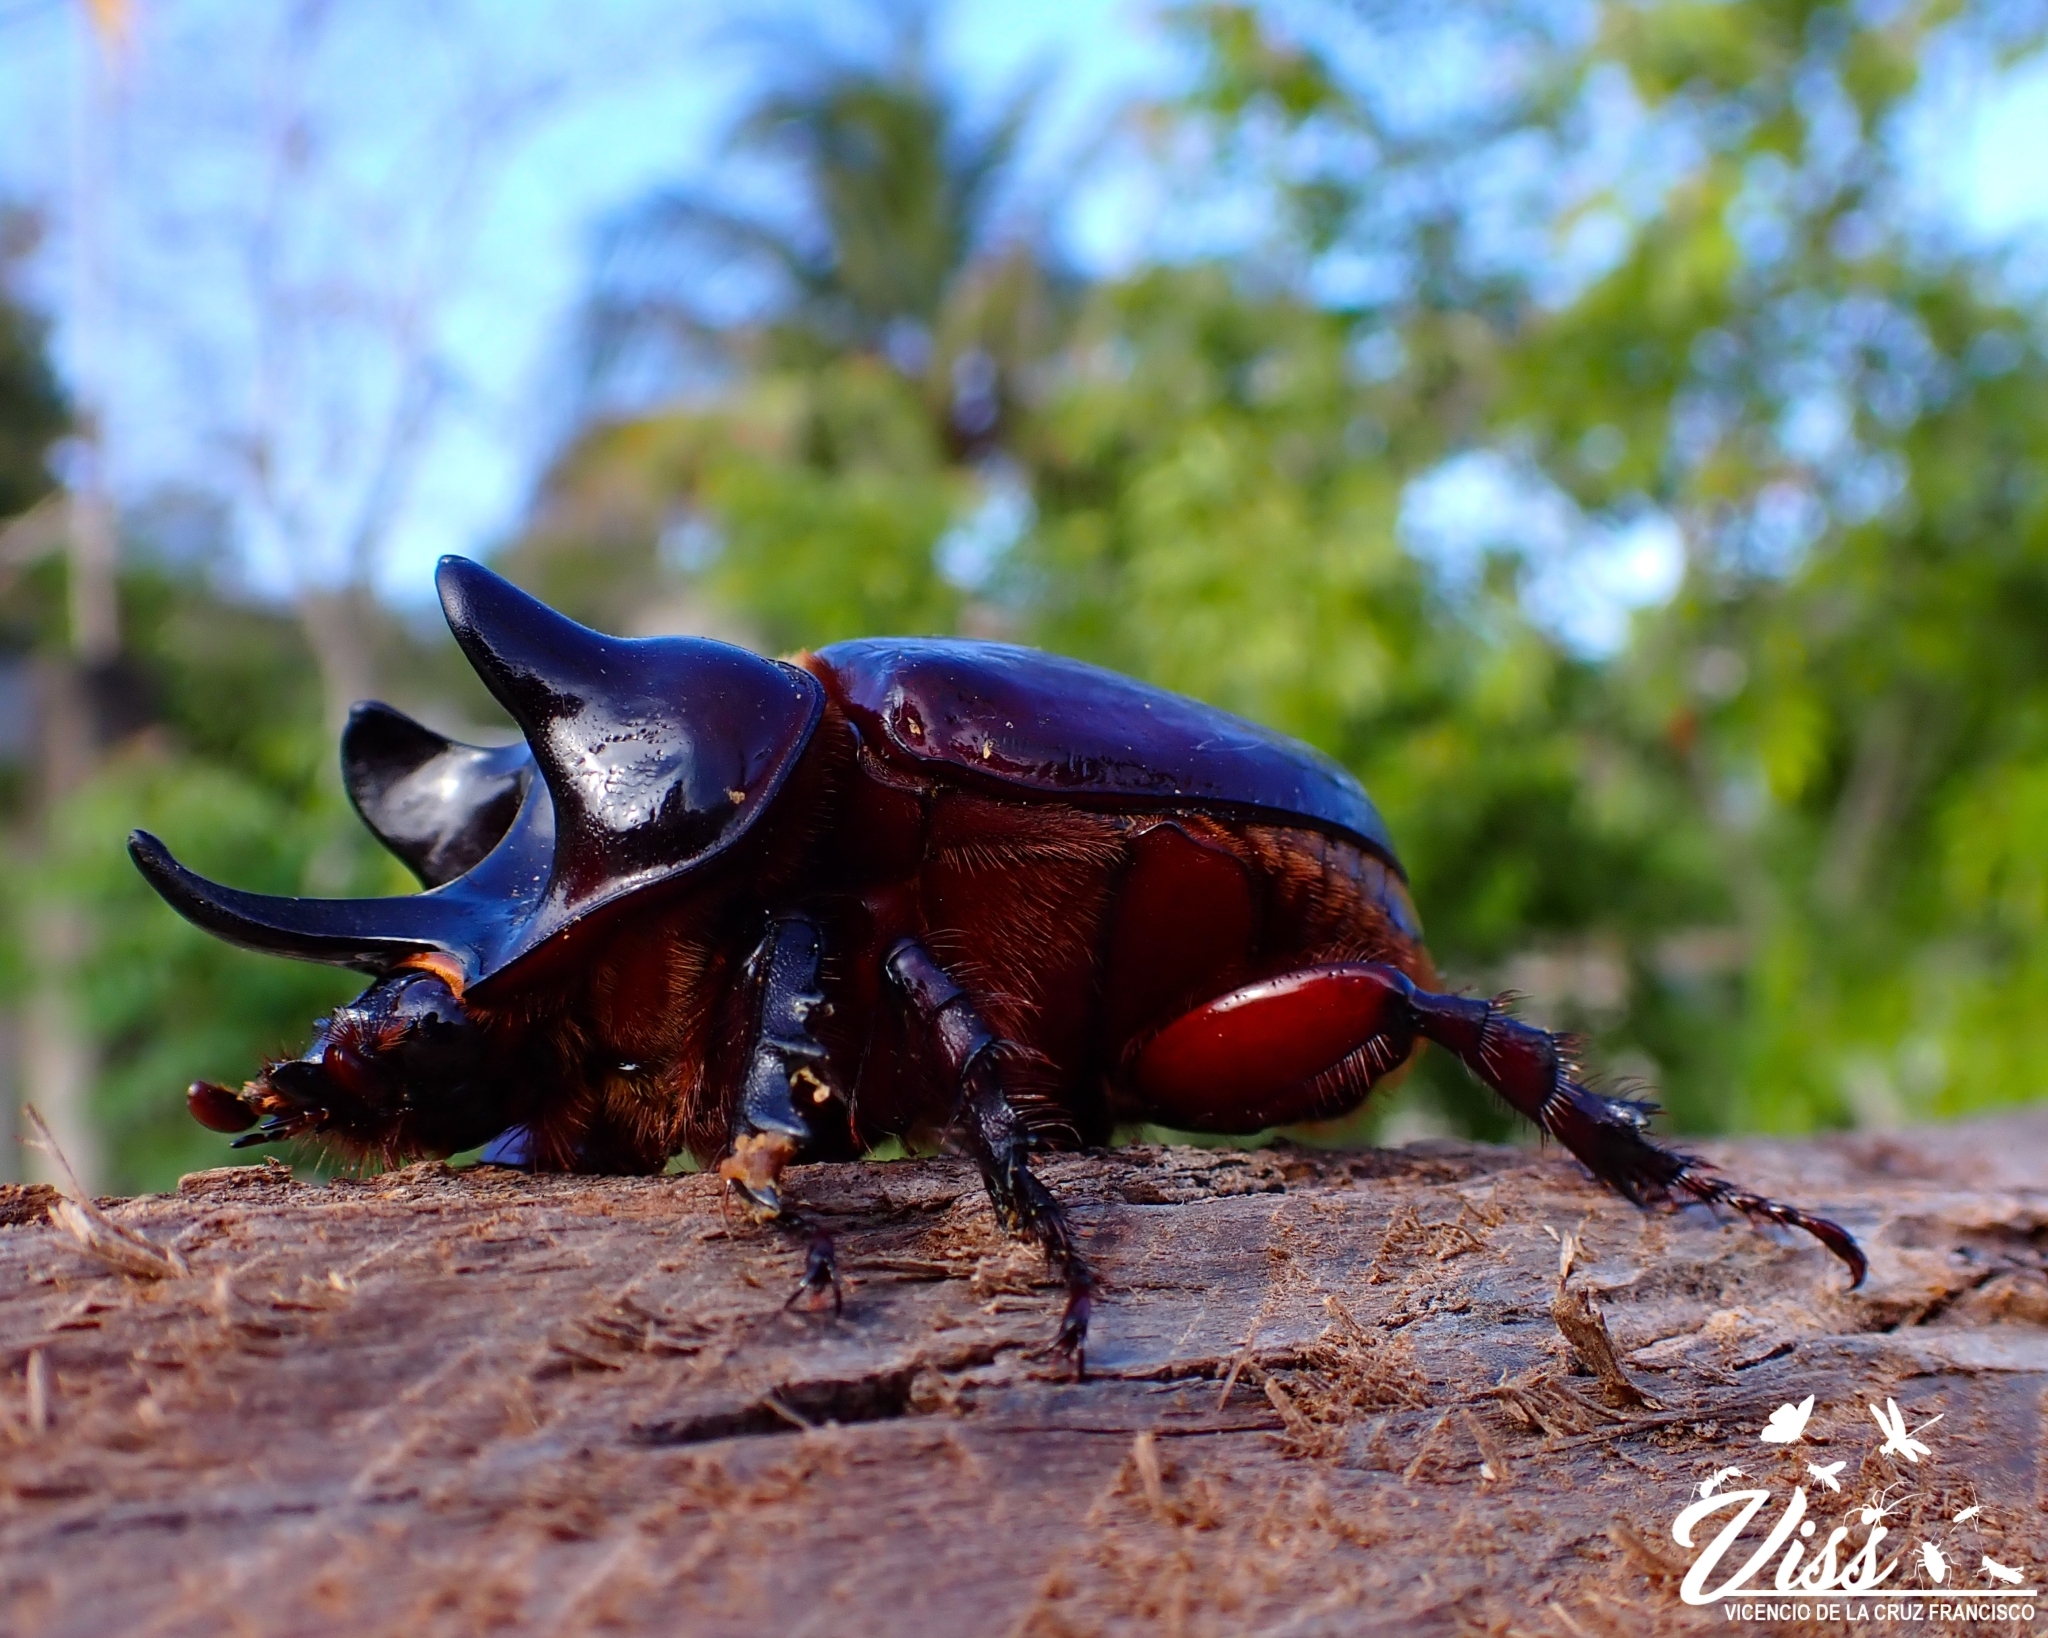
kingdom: Animalia
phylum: Arthropoda
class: Insecta
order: Coleoptera
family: Scarabaeidae
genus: Strategus
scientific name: Strategus aloeus
